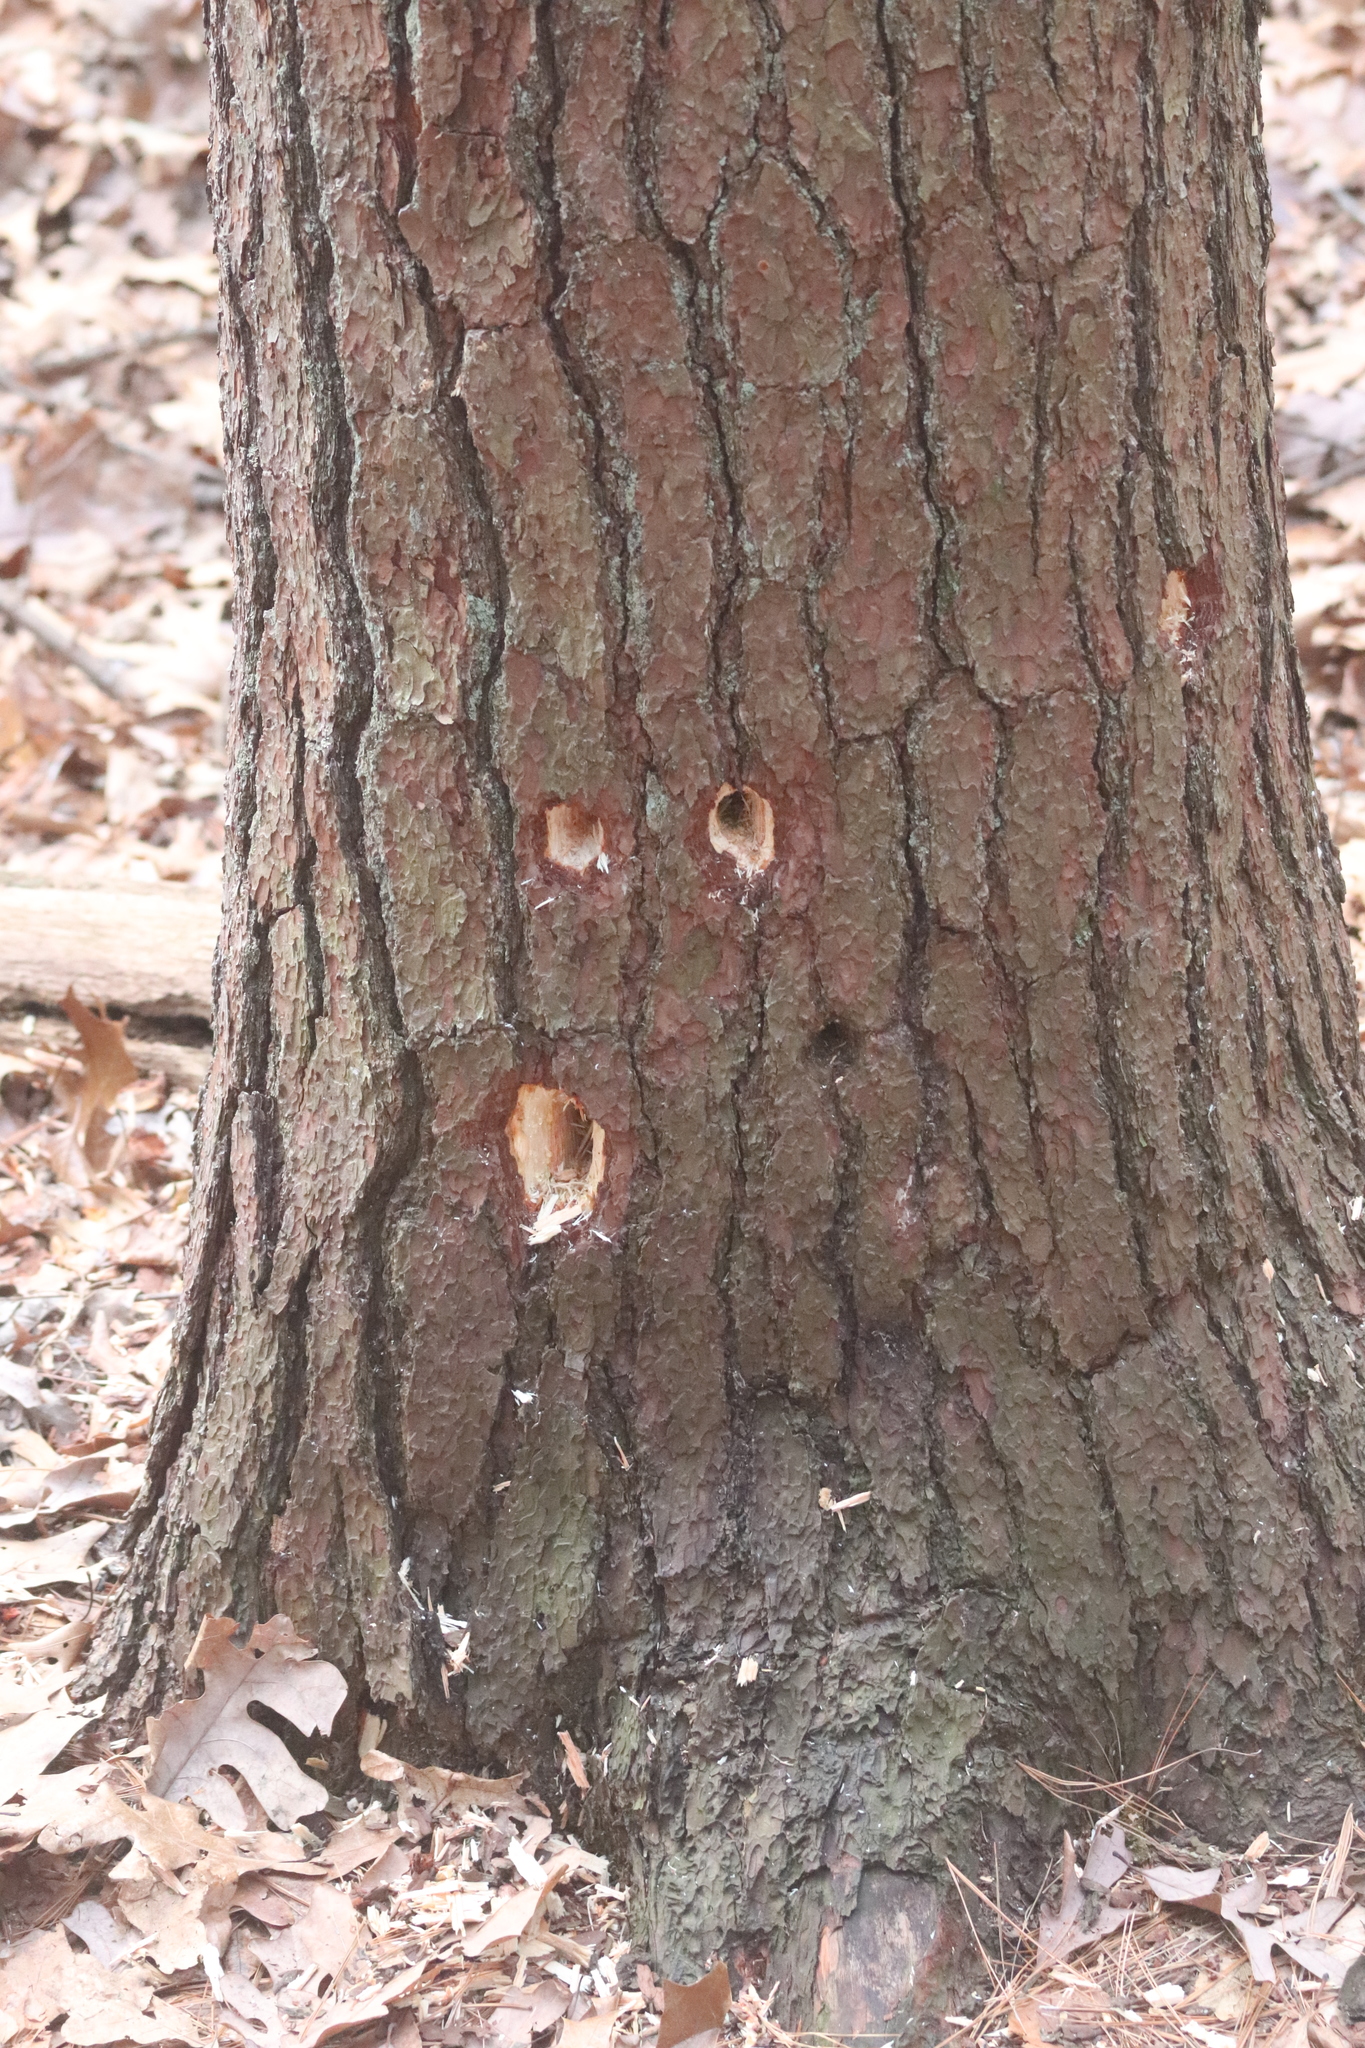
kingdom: Animalia
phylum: Chordata
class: Aves
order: Piciformes
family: Picidae
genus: Dryocopus
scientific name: Dryocopus pileatus
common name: Pileated woodpecker
